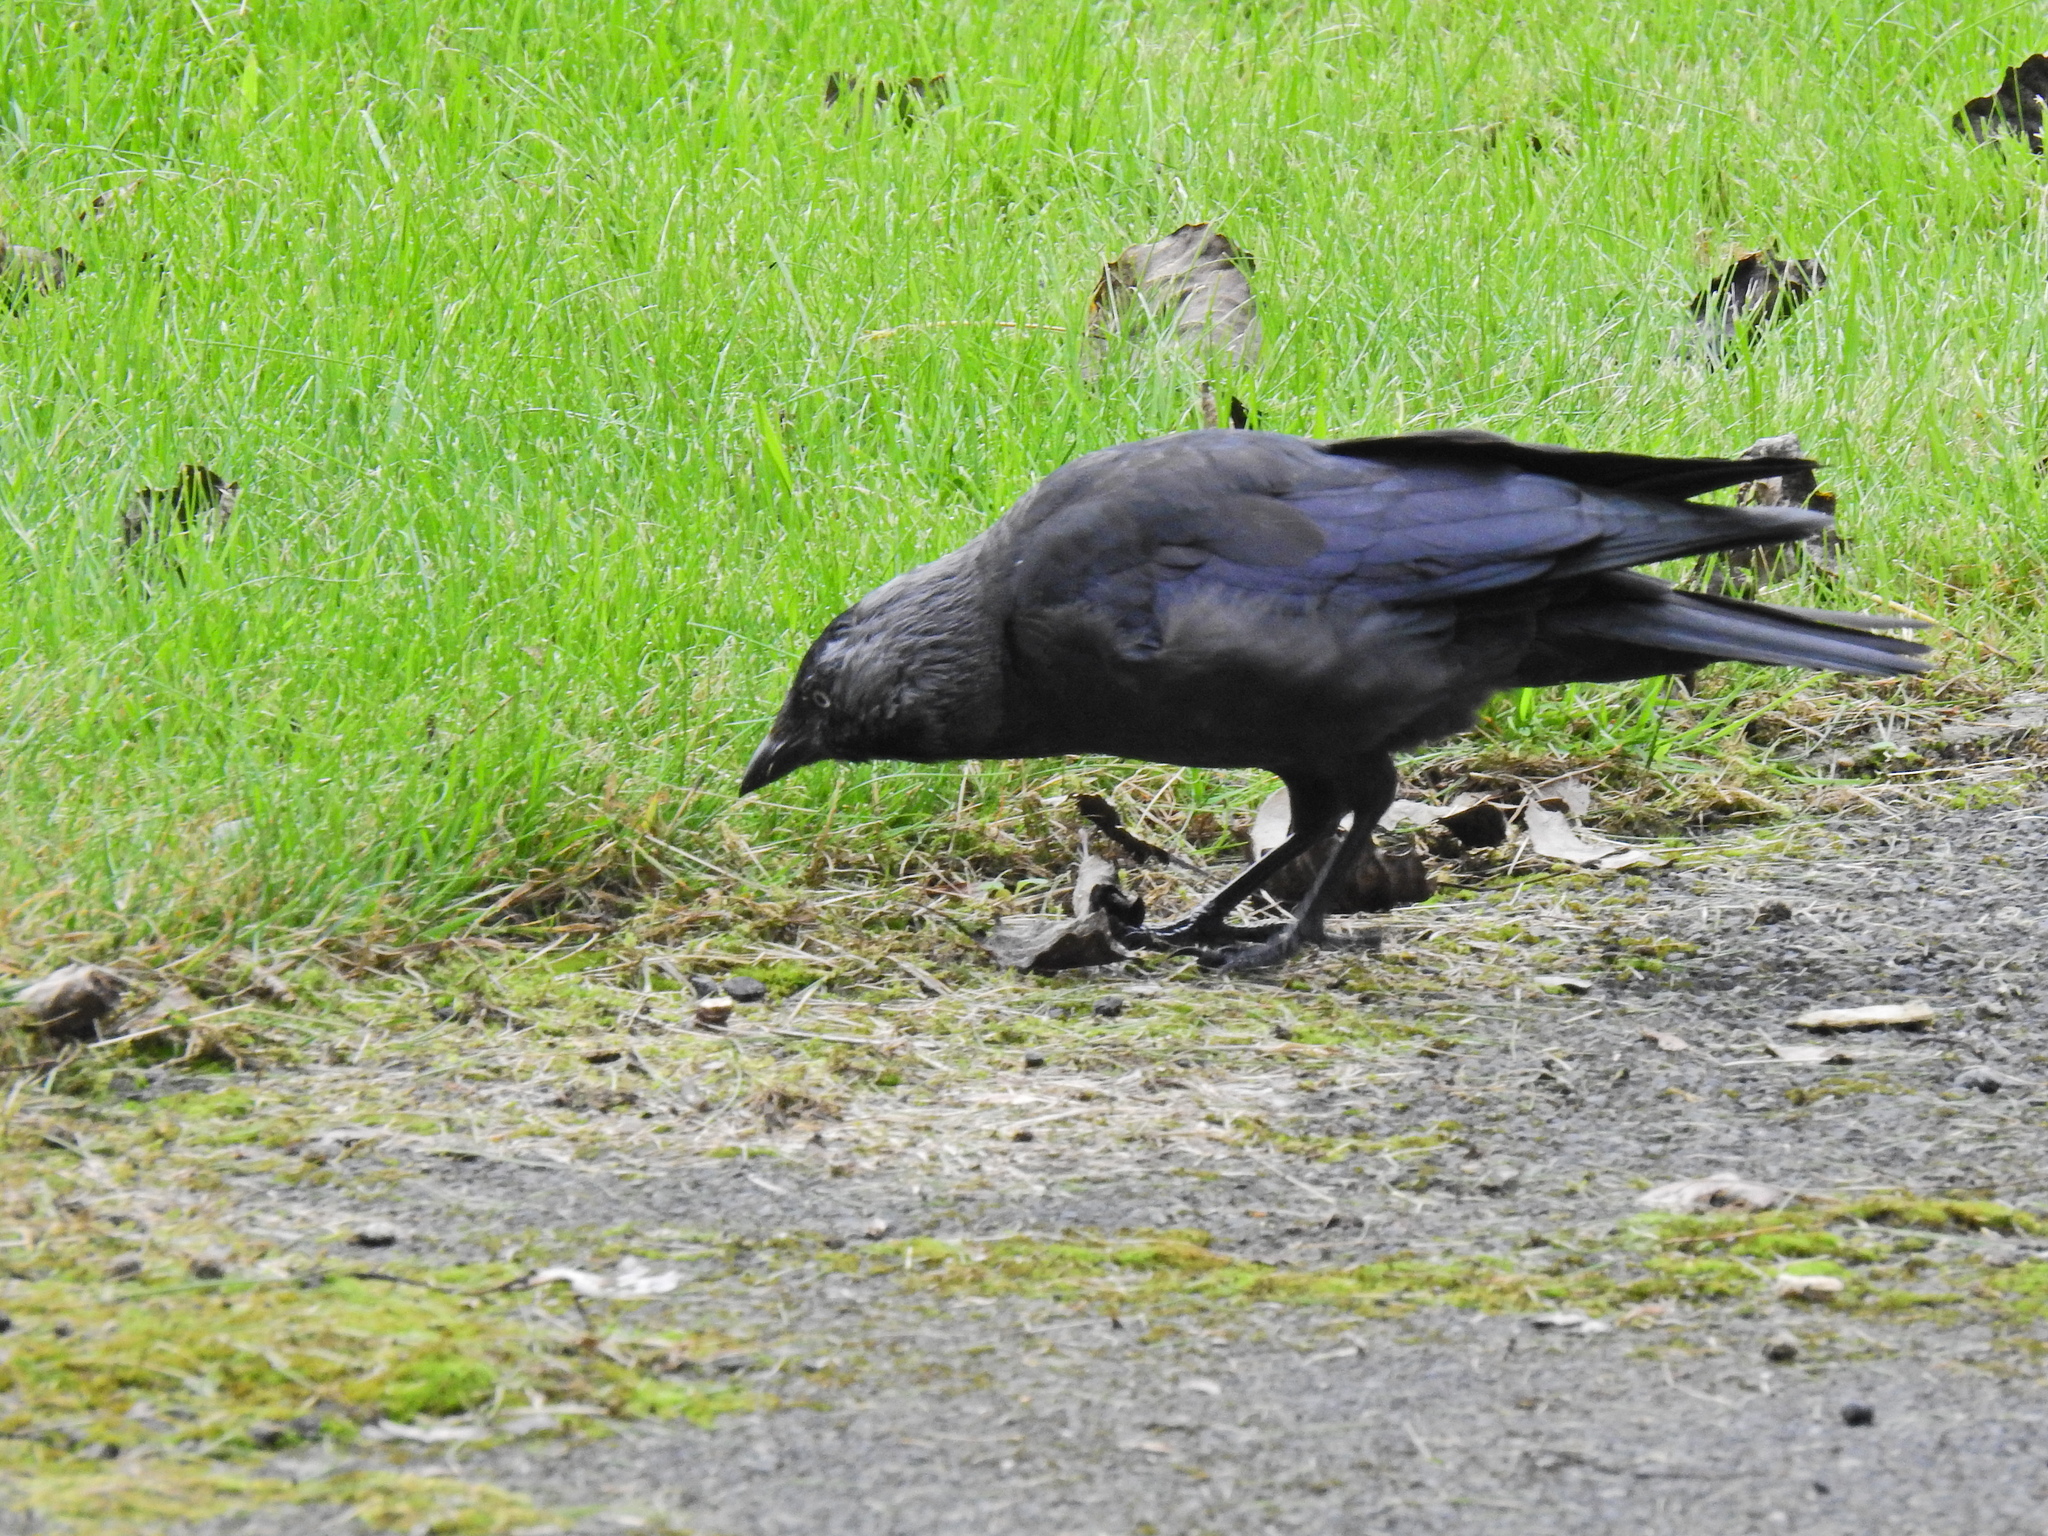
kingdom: Animalia
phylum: Chordata
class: Aves
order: Passeriformes
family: Corvidae
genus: Coloeus
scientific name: Coloeus monedula
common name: Western jackdaw
